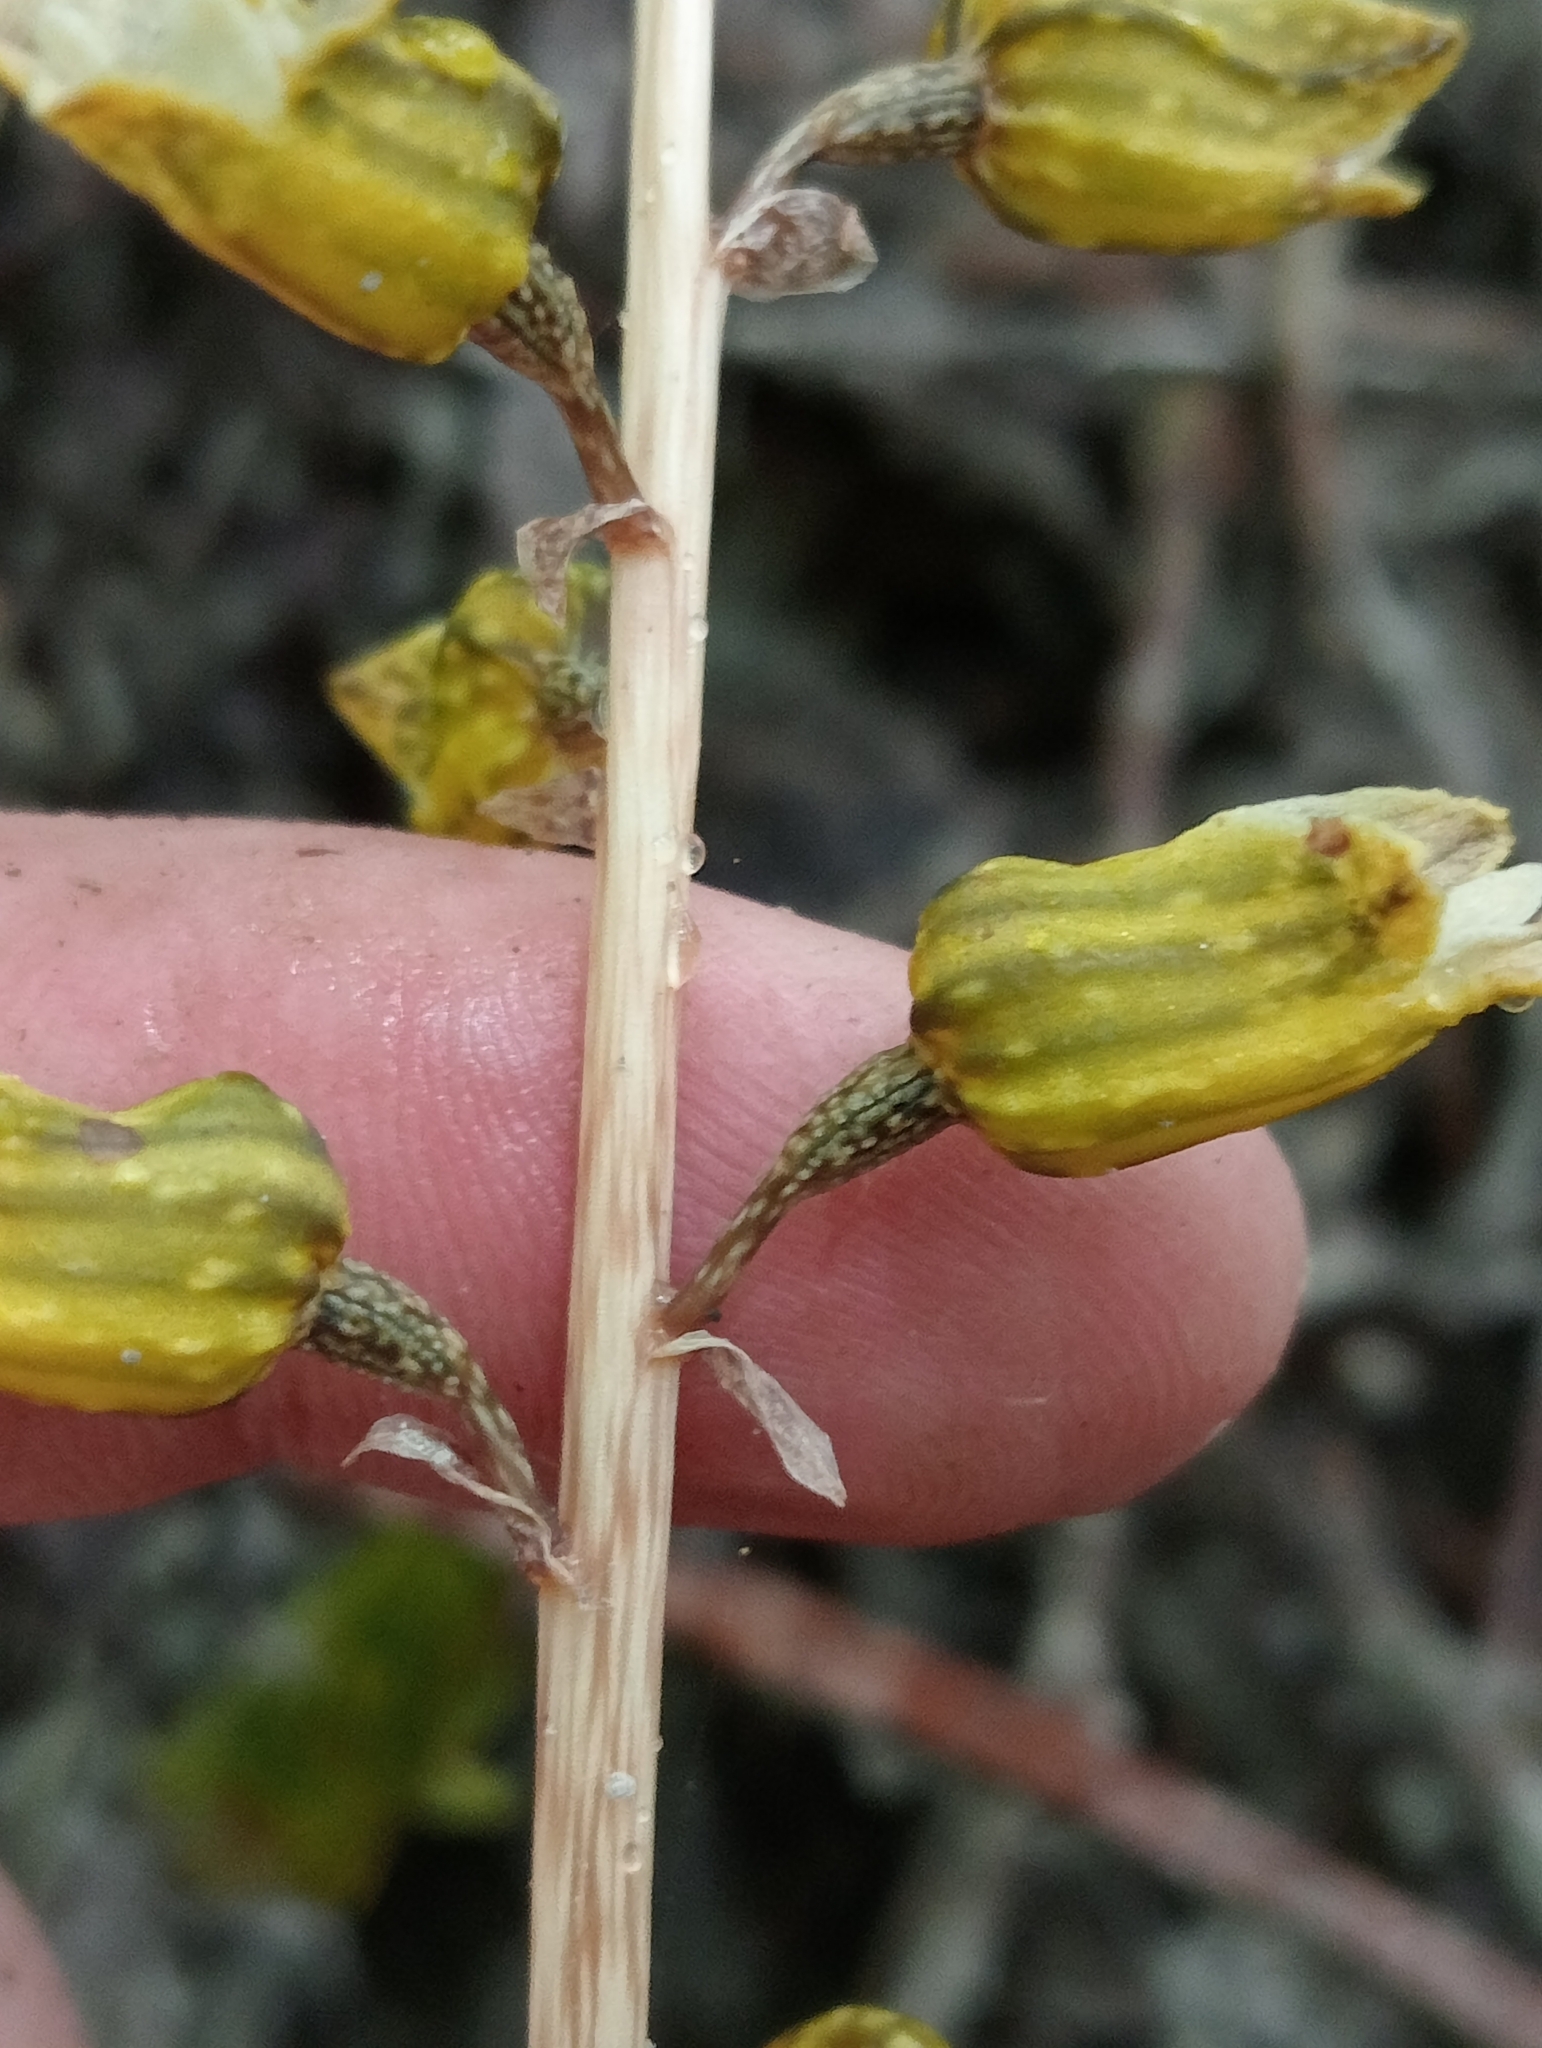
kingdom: Plantae
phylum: Tracheophyta
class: Liliopsida
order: Asparagales
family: Orchidaceae
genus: Gastrodia
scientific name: Gastrodia molloyi
